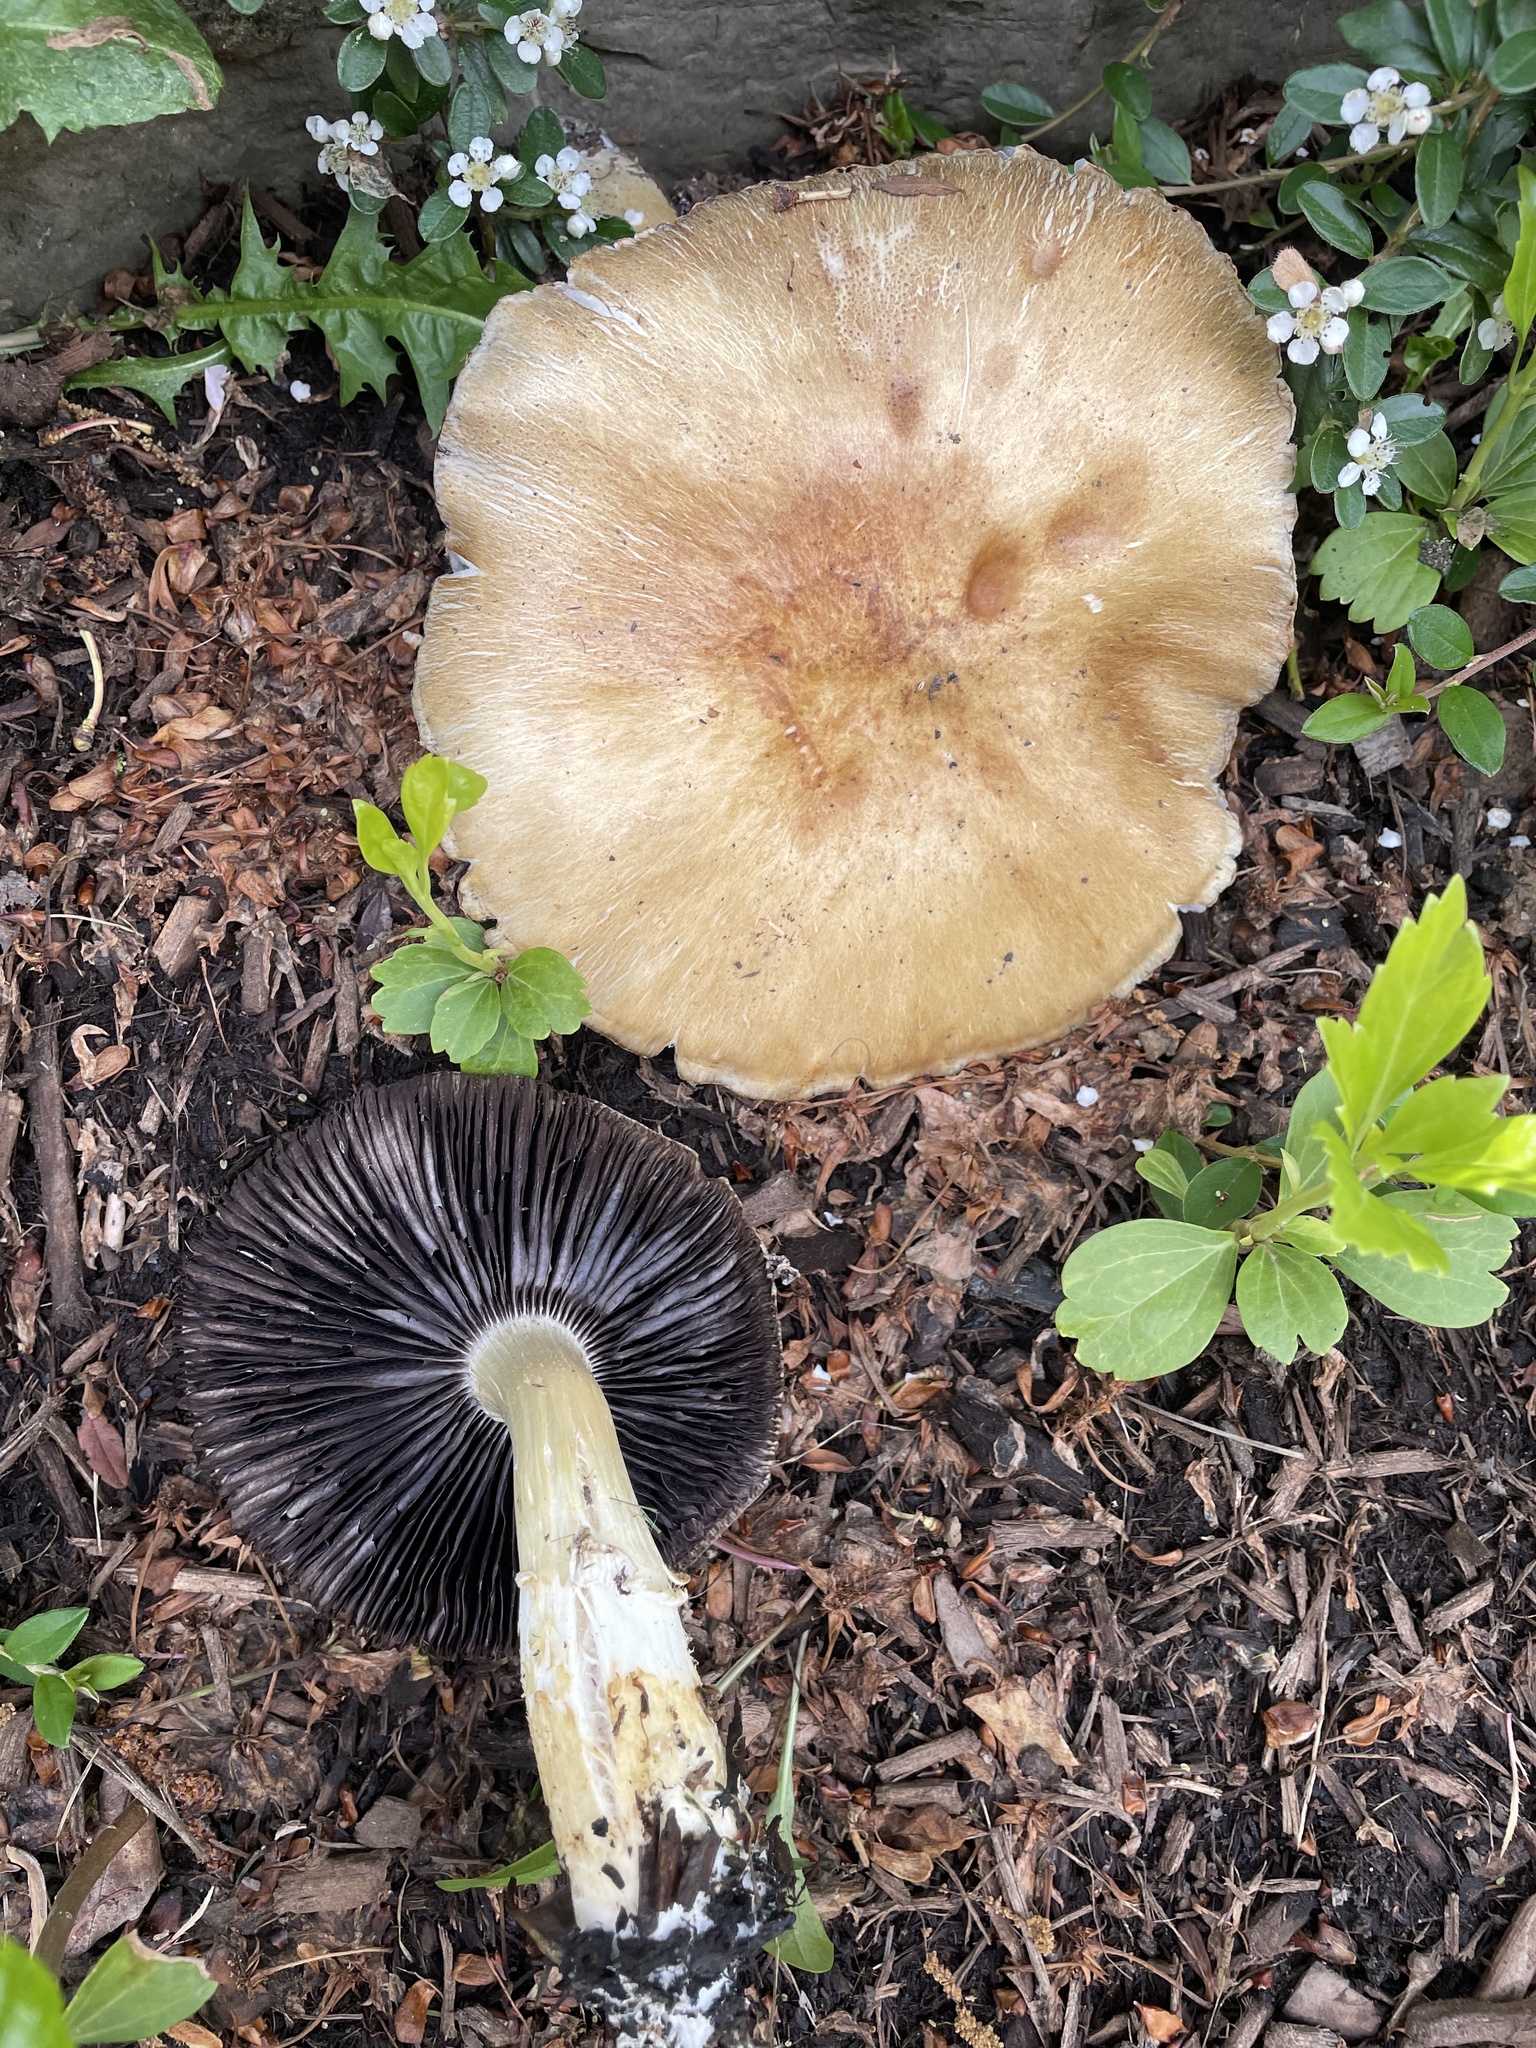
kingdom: Fungi
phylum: Basidiomycota
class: Agaricomycetes
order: Agaricales
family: Strophariaceae
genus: Stropharia
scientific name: Stropharia rugosoannulata
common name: Wine roundhead
